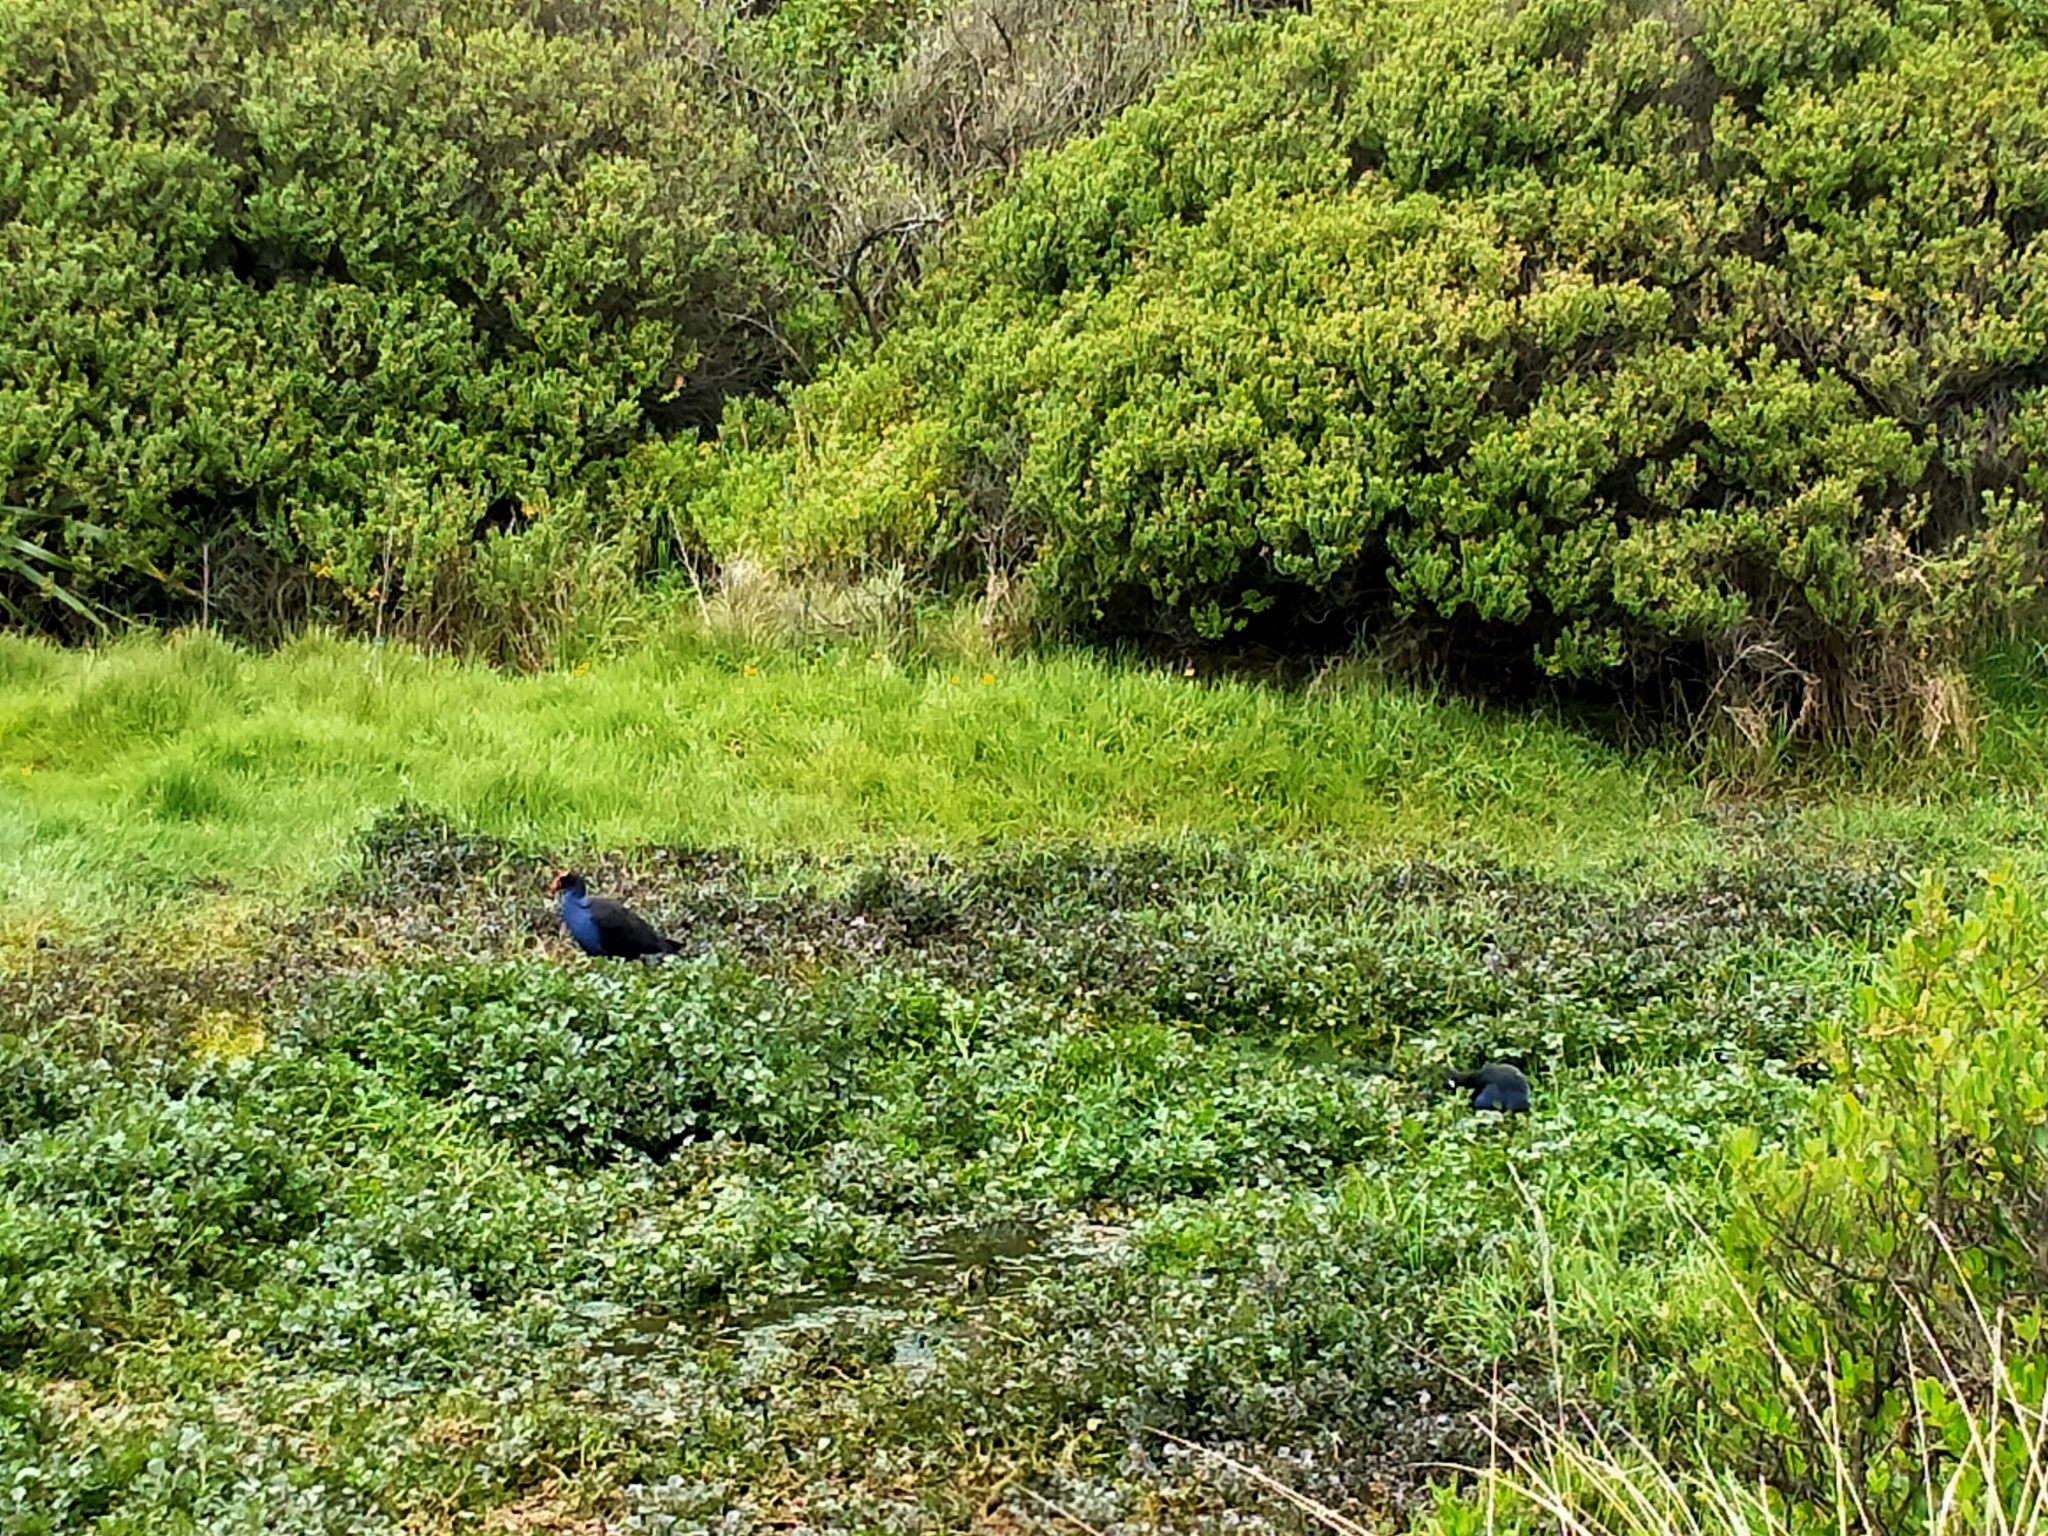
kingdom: Animalia
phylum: Chordata
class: Aves
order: Gruiformes
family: Rallidae
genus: Porphyrio
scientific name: Porphyrio melanotus
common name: Australasian swamphen
